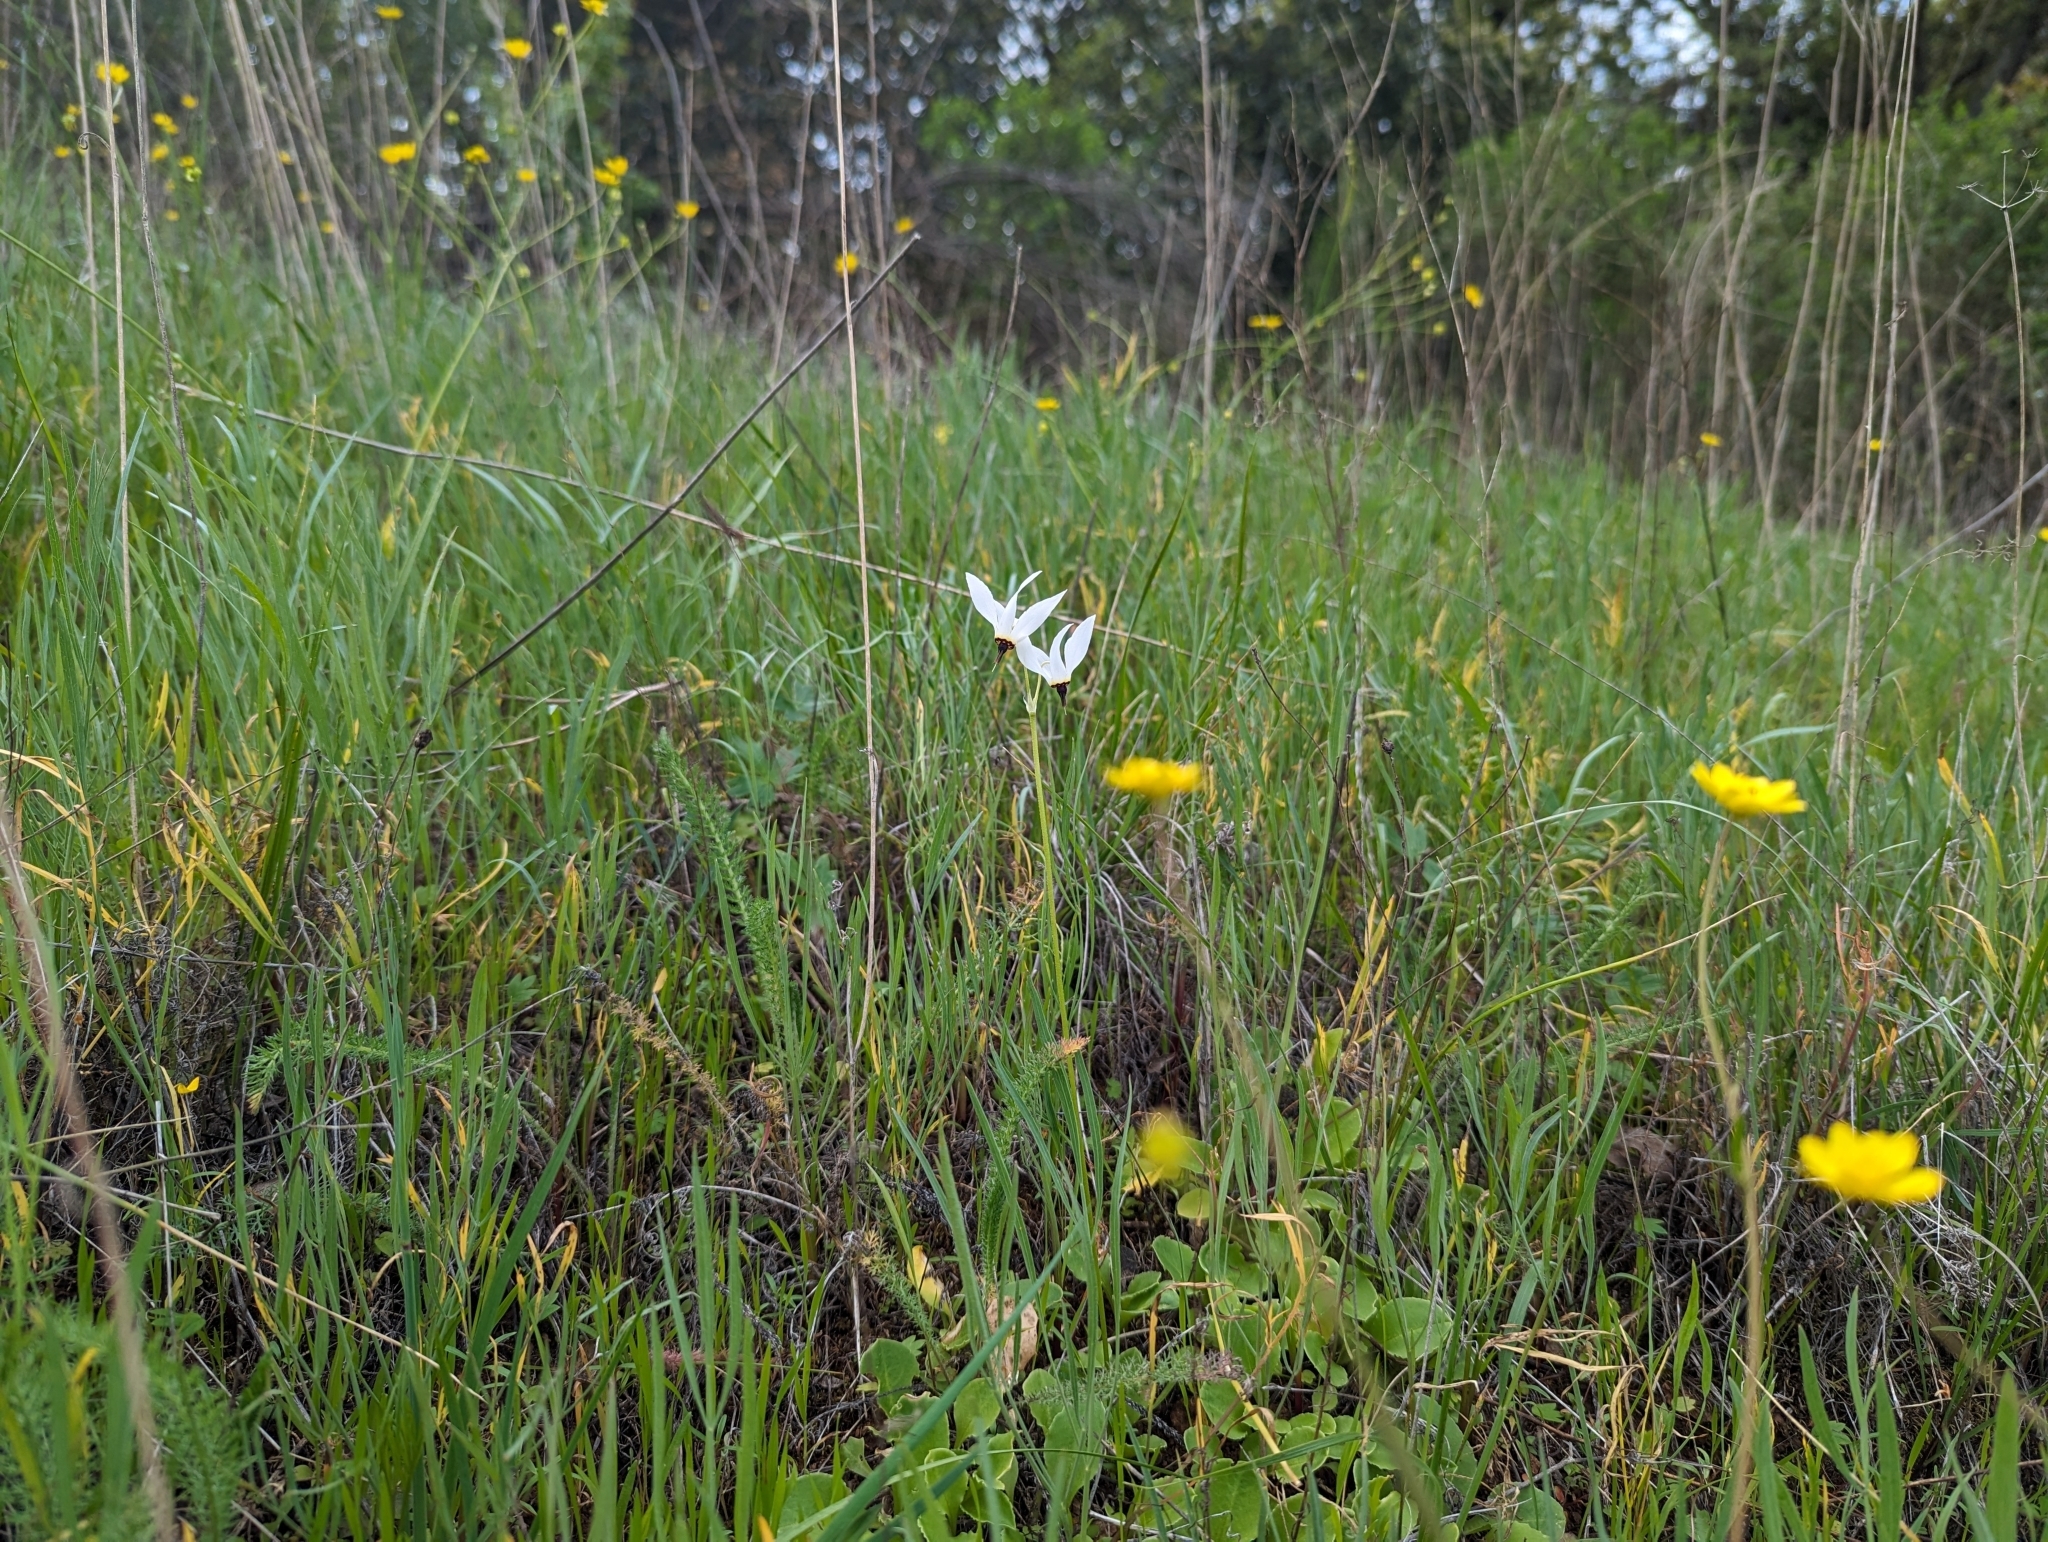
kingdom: Plantae
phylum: Tracheophyta
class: Magnoliopsida
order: Ericales
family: Primulaceae
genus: Dodecatheon
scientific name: Dodecatheon hendersonii
